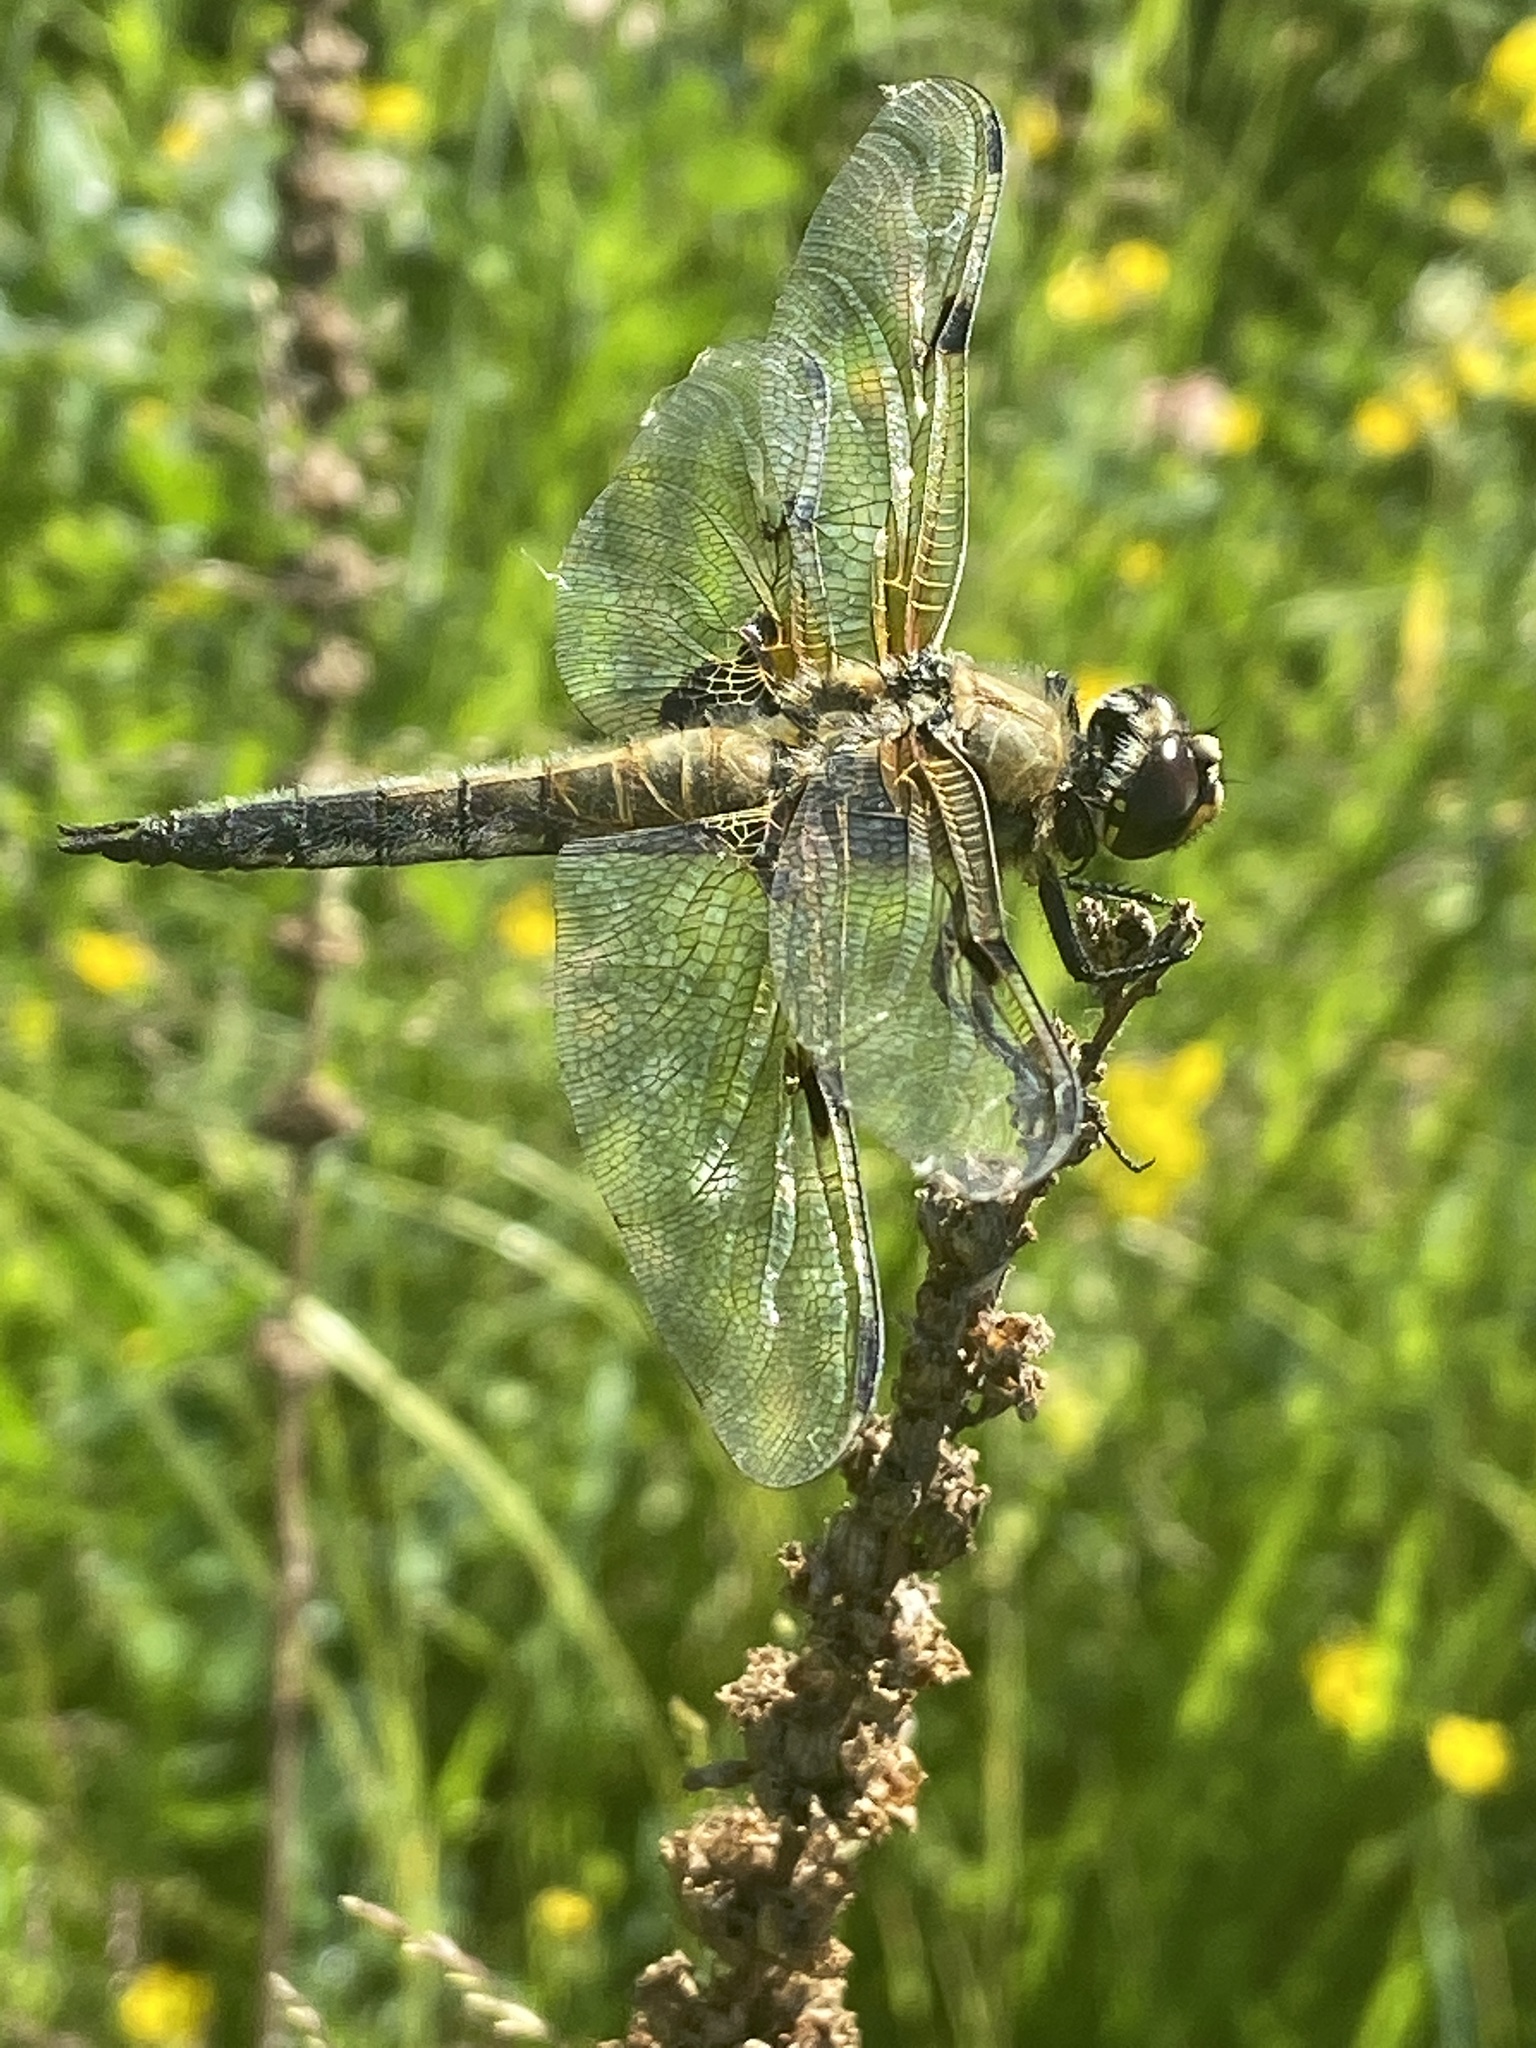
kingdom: Animalia
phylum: Arthropoda
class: Insecta
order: Odonata
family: Libellulidae
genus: Libellula
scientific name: Libellula quadrimaculata
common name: Four-spotted chaser
